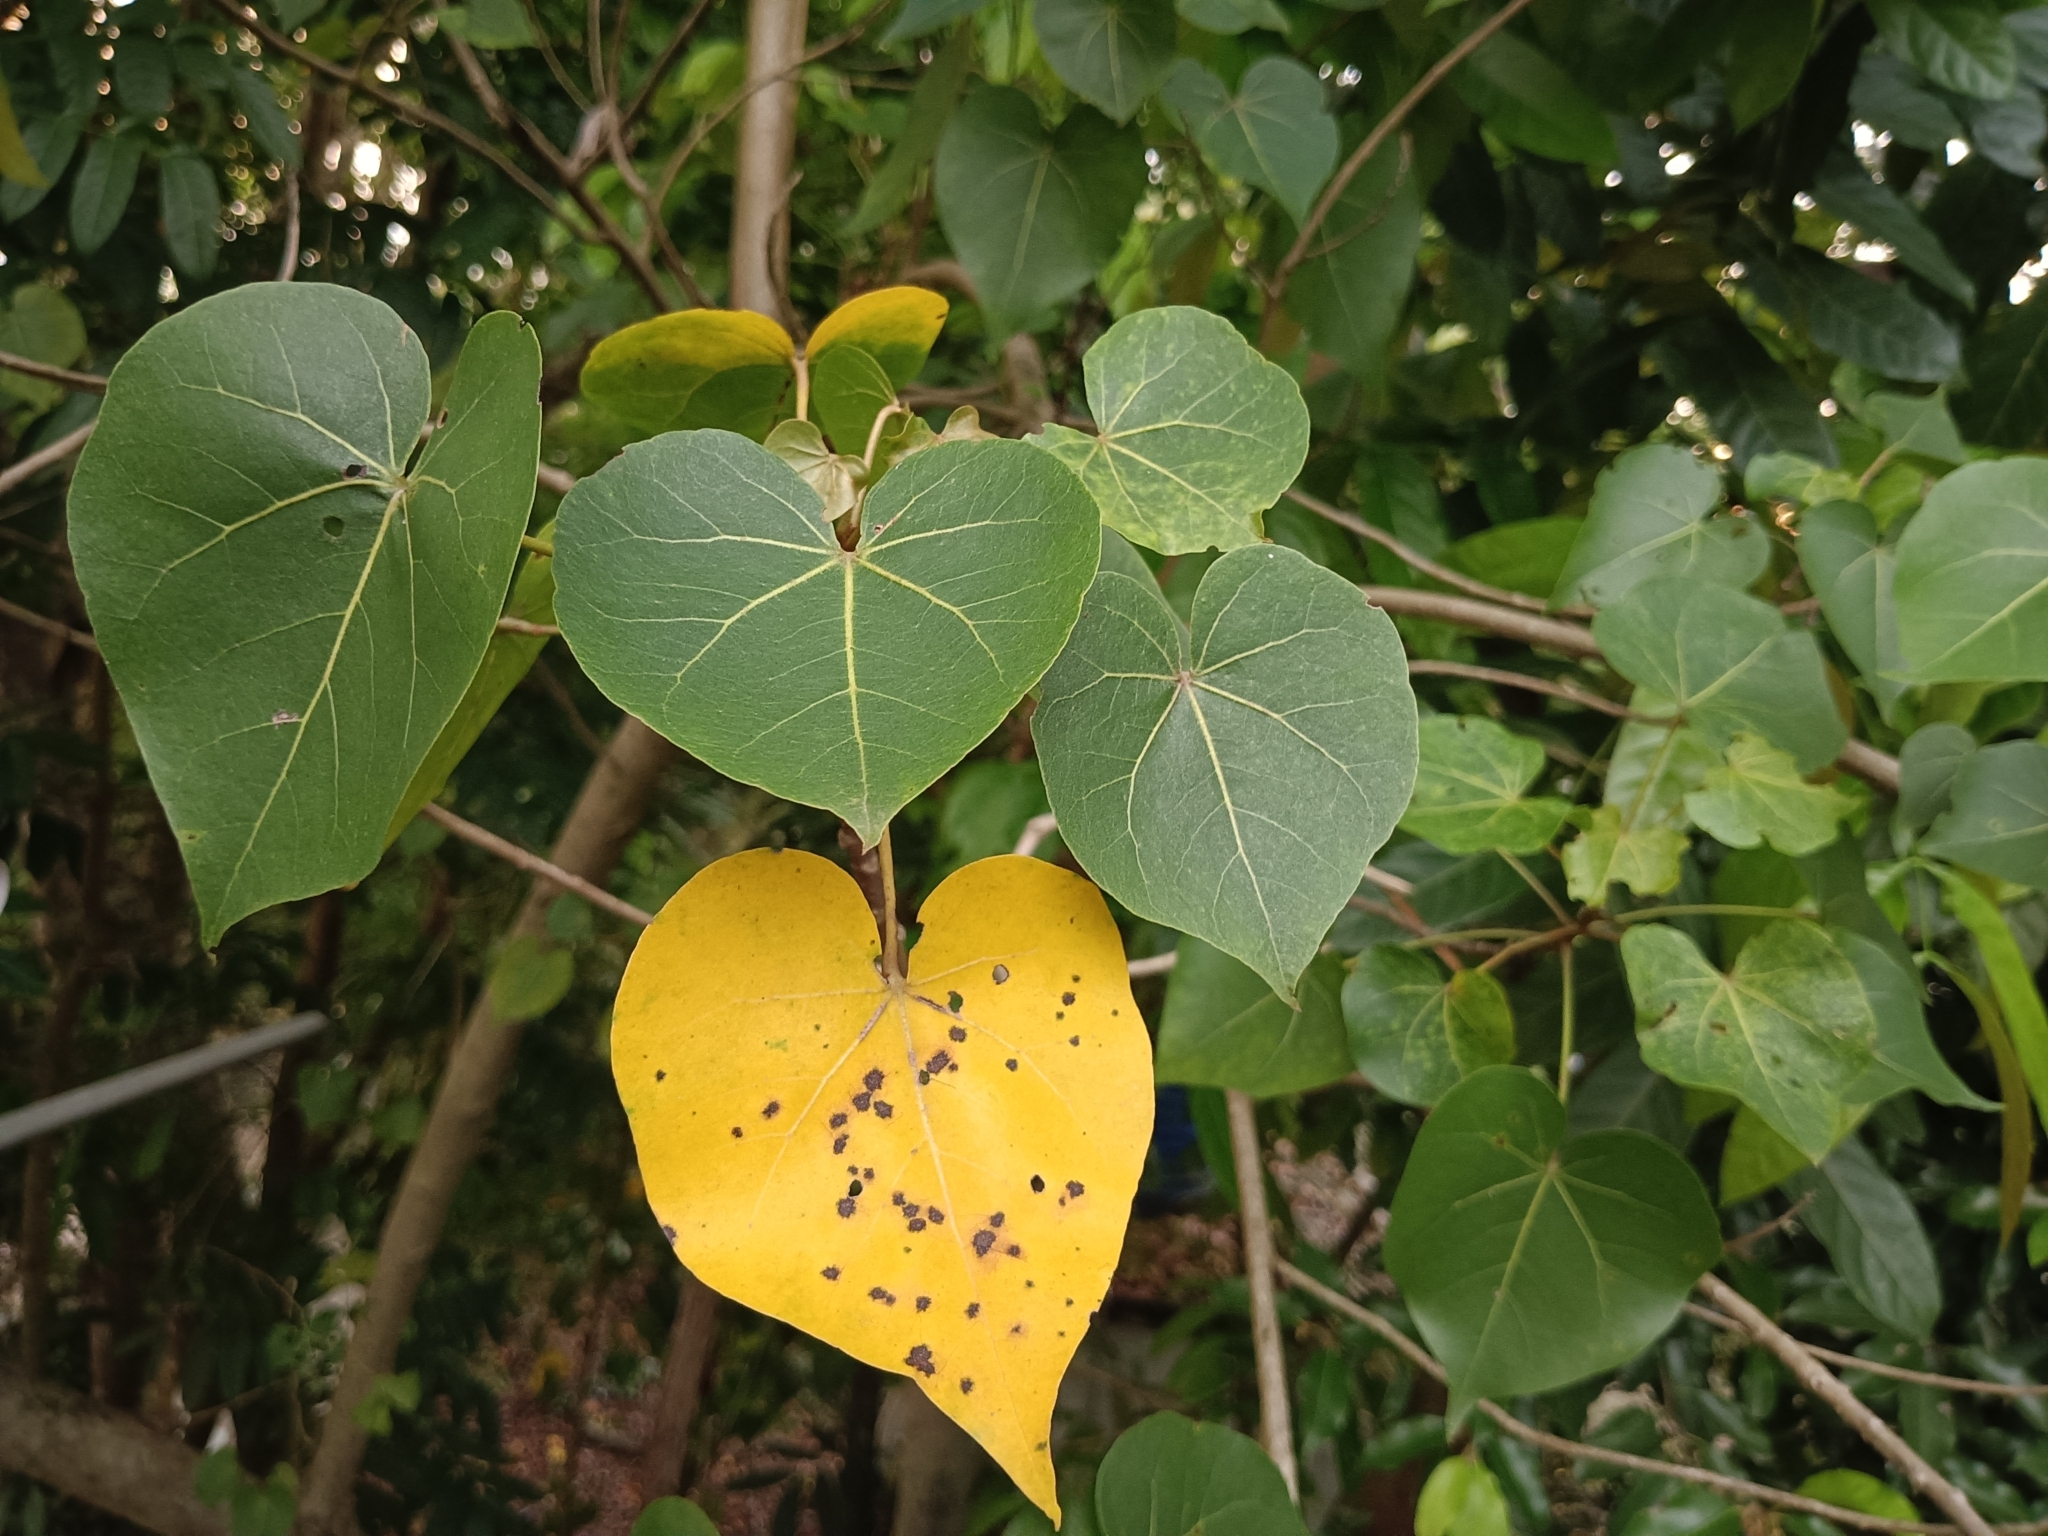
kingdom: Plantae
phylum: Tracheophyta
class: Magnoliopsida
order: Malvales
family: Malvaceae
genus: Thespesia
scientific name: Thespesia populnea
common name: Seaside mahoe
